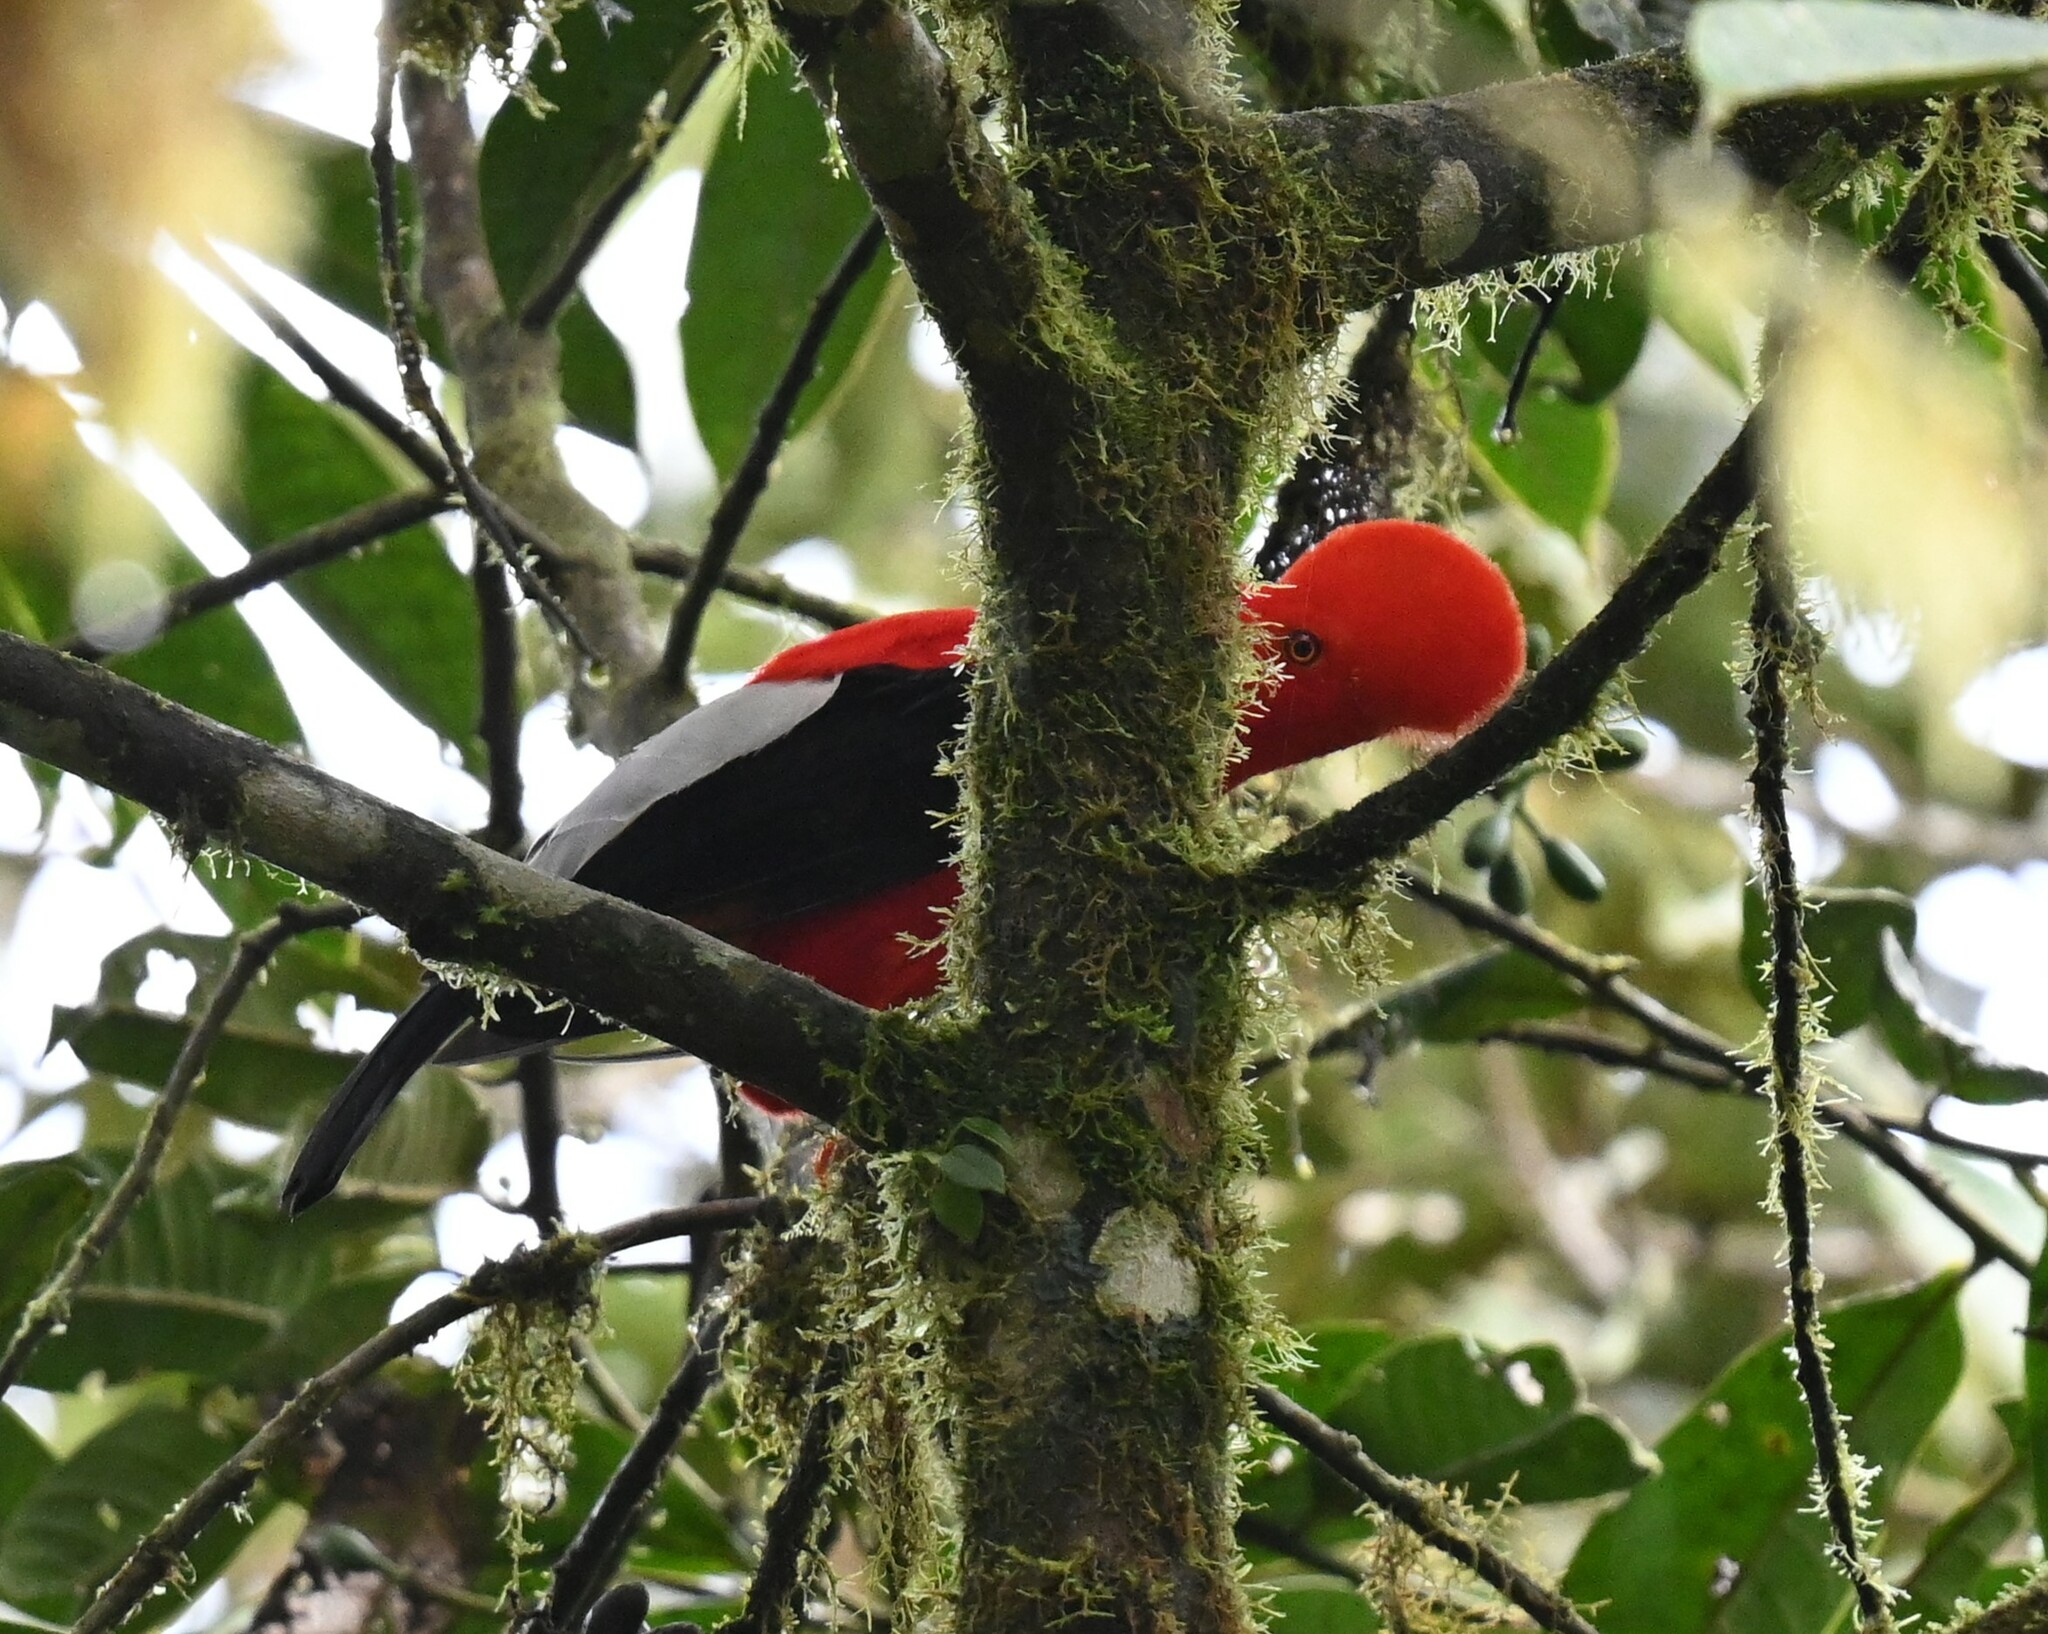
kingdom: Animalia
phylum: Chordata
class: Aves
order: Passeriformes
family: Cotingidae
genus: Rupicola
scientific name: Rupicola peruvianus
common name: Andean cock-of-the-rock
